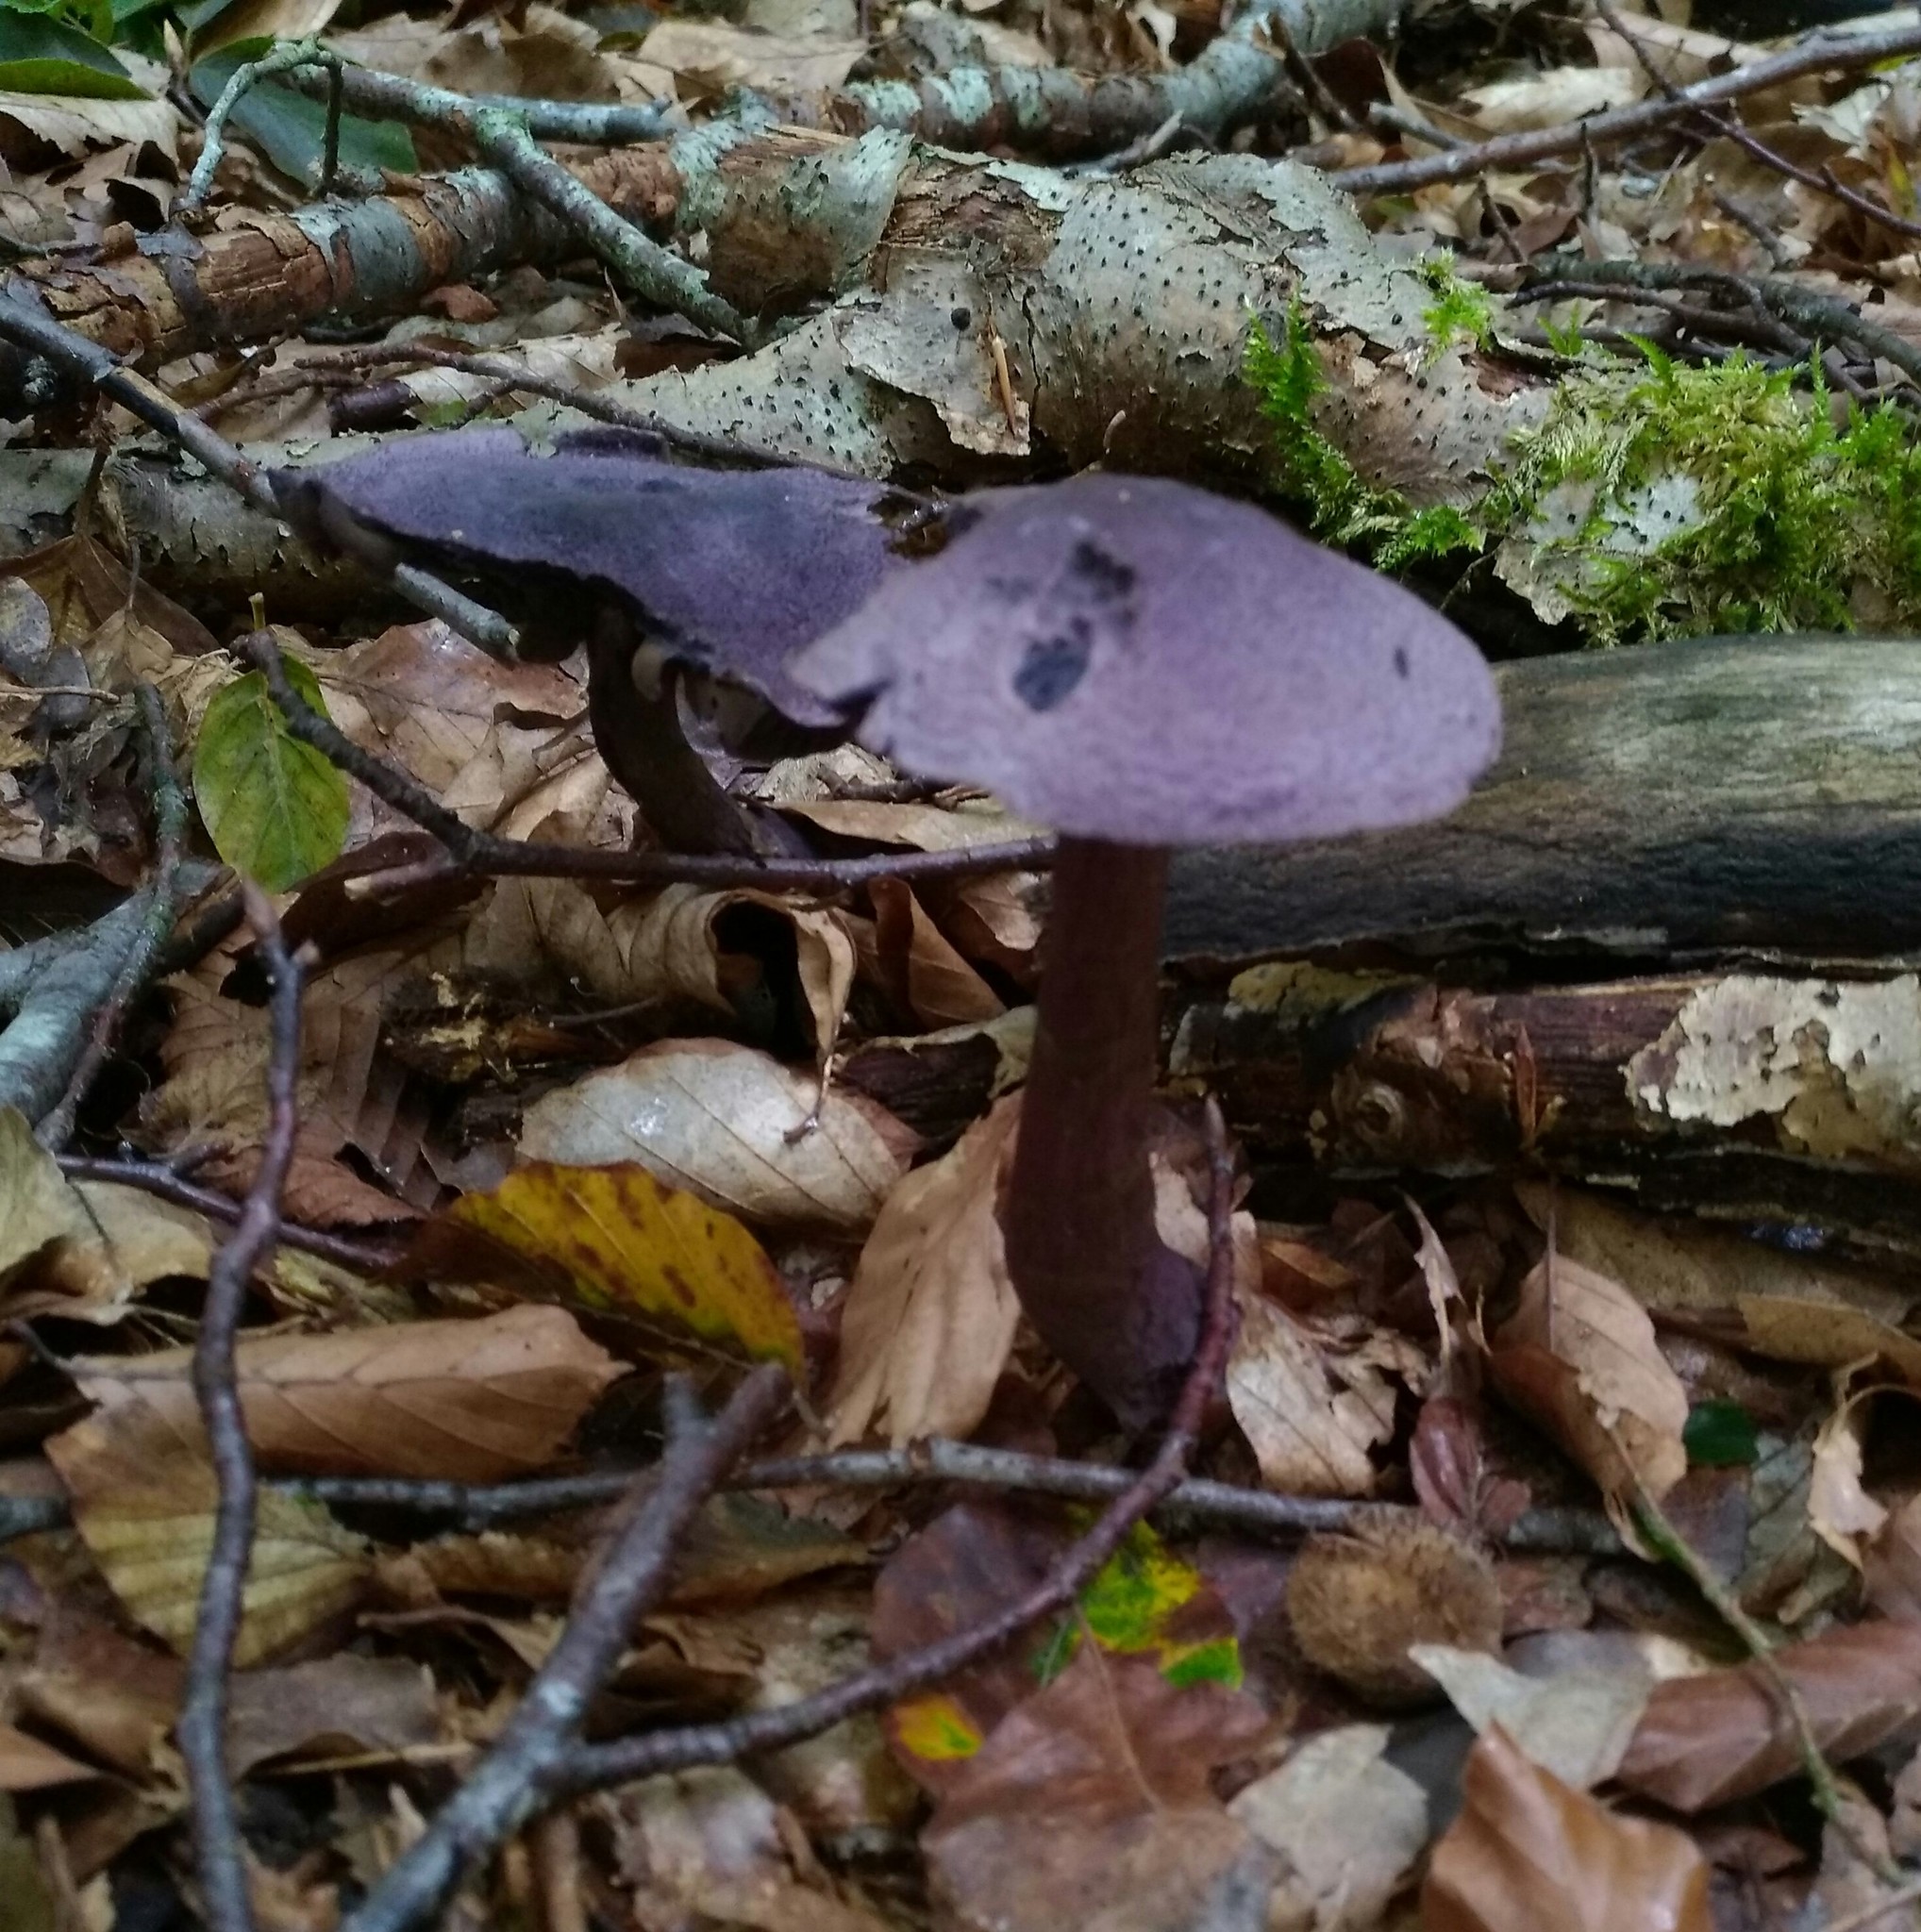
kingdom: Fungi
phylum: Basidiomycota
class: Agaricomycetes
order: Agaricales
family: Cortinariaceae
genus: Cortinarius
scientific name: Cortinarius violaceus
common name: Violet webcap
